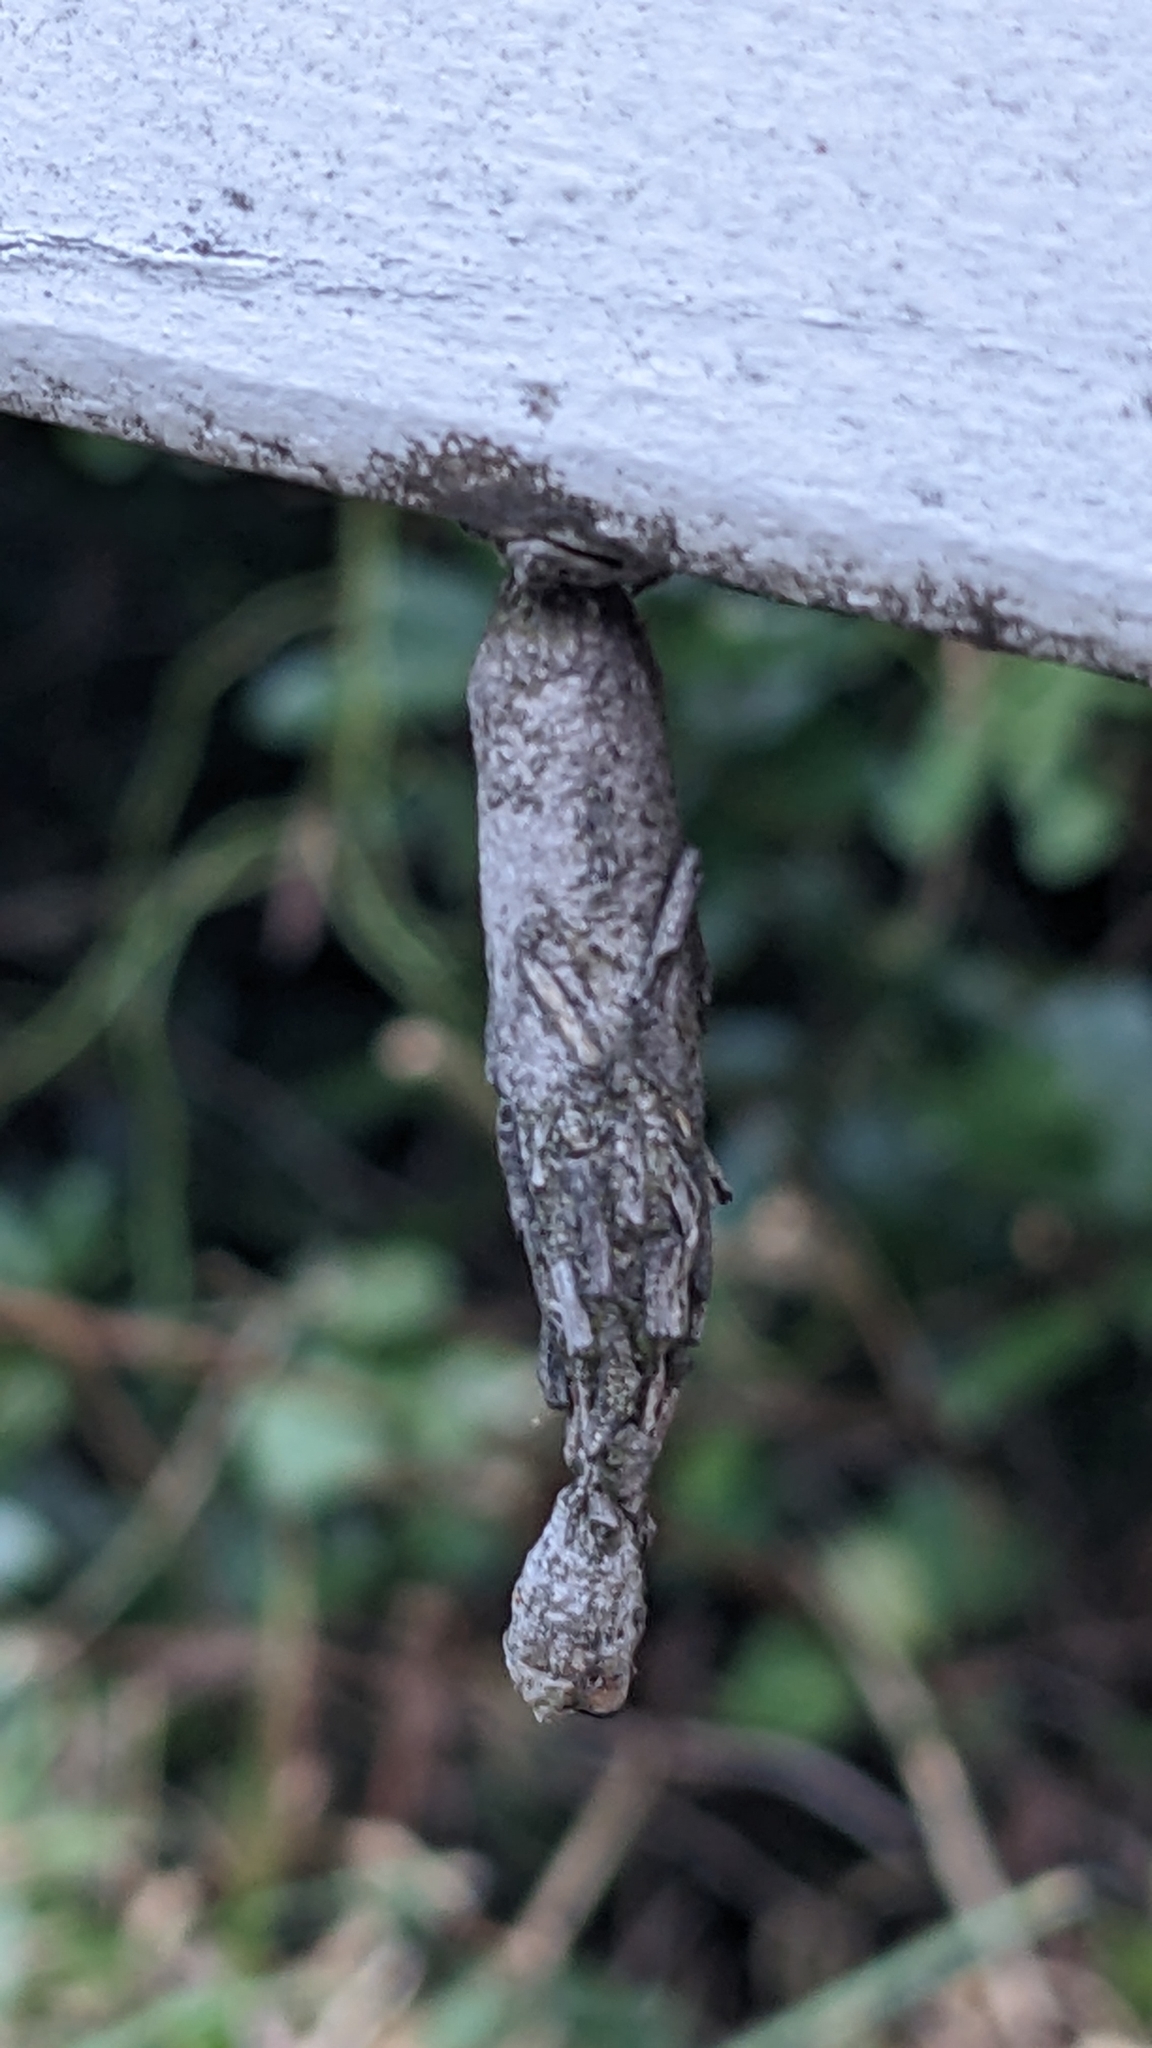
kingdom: Animalia
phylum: Arthropoda
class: Insecta
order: Lepidoptera
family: Psychidae
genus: Liothula
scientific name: Liothula omnivora
